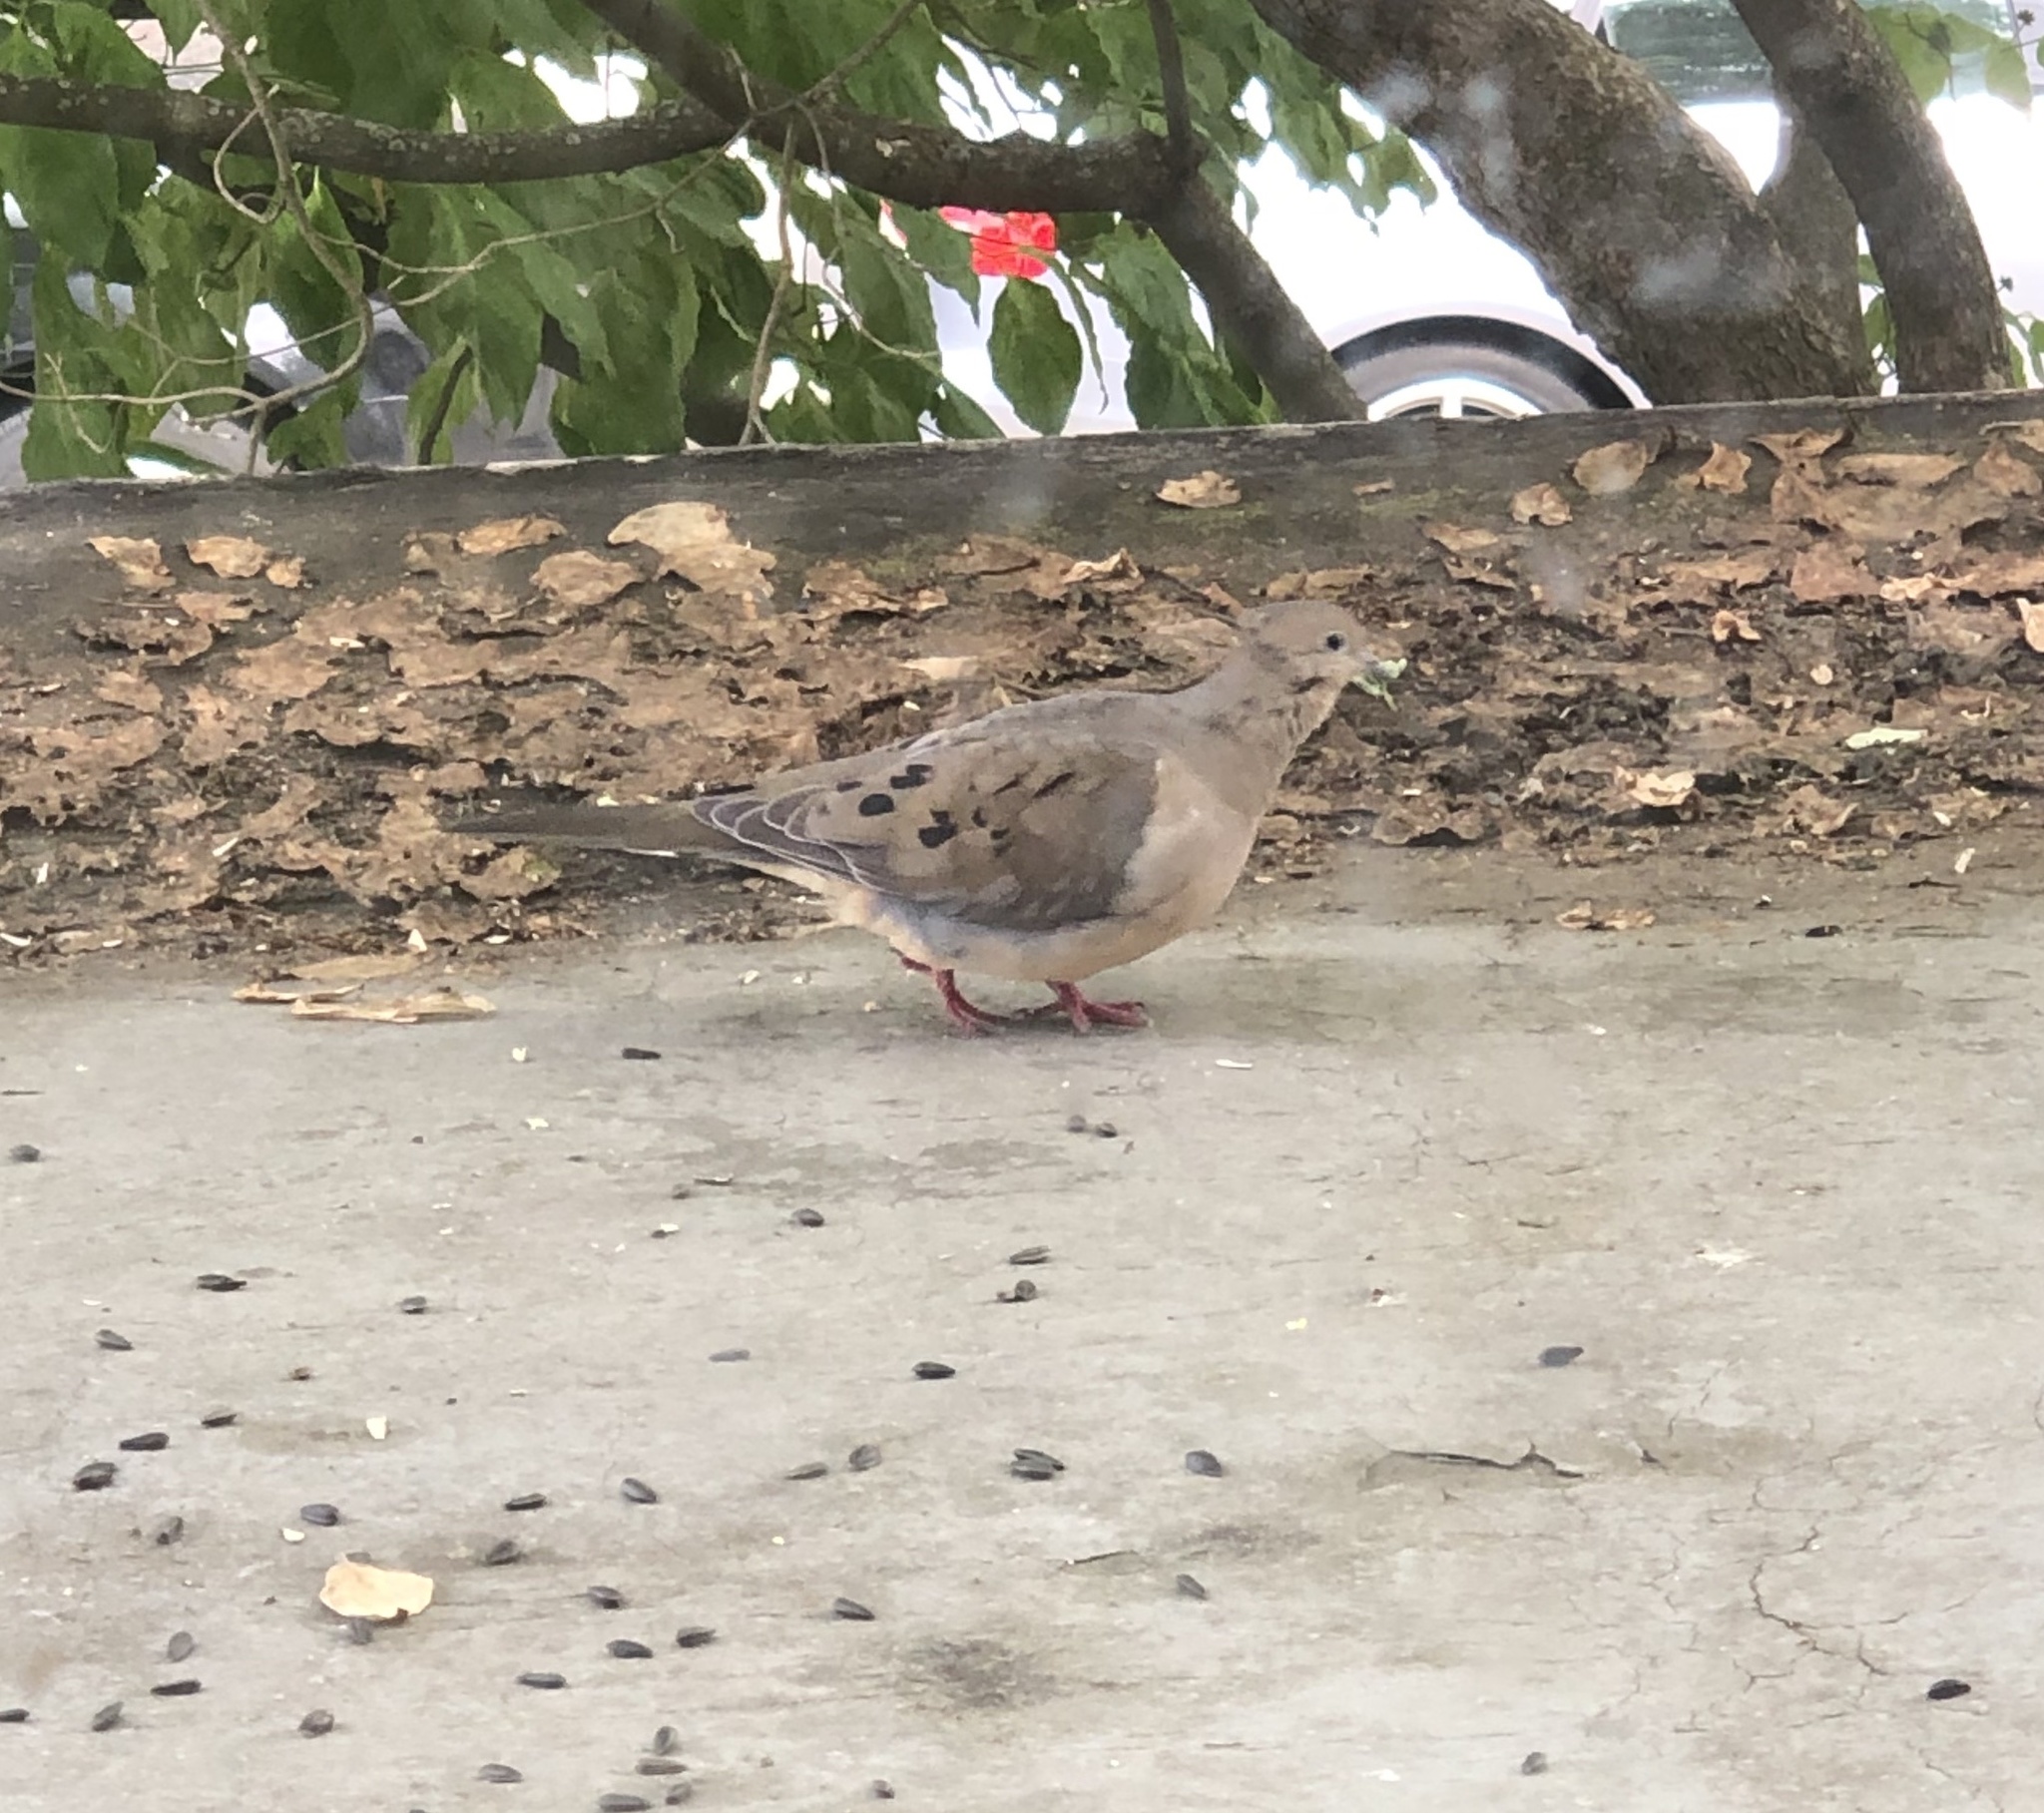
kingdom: Animalia
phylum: Chordata
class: Aves
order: Columbiformes
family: Columbidae
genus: Zenaida
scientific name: Zenaida macroura
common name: Mourning dove
